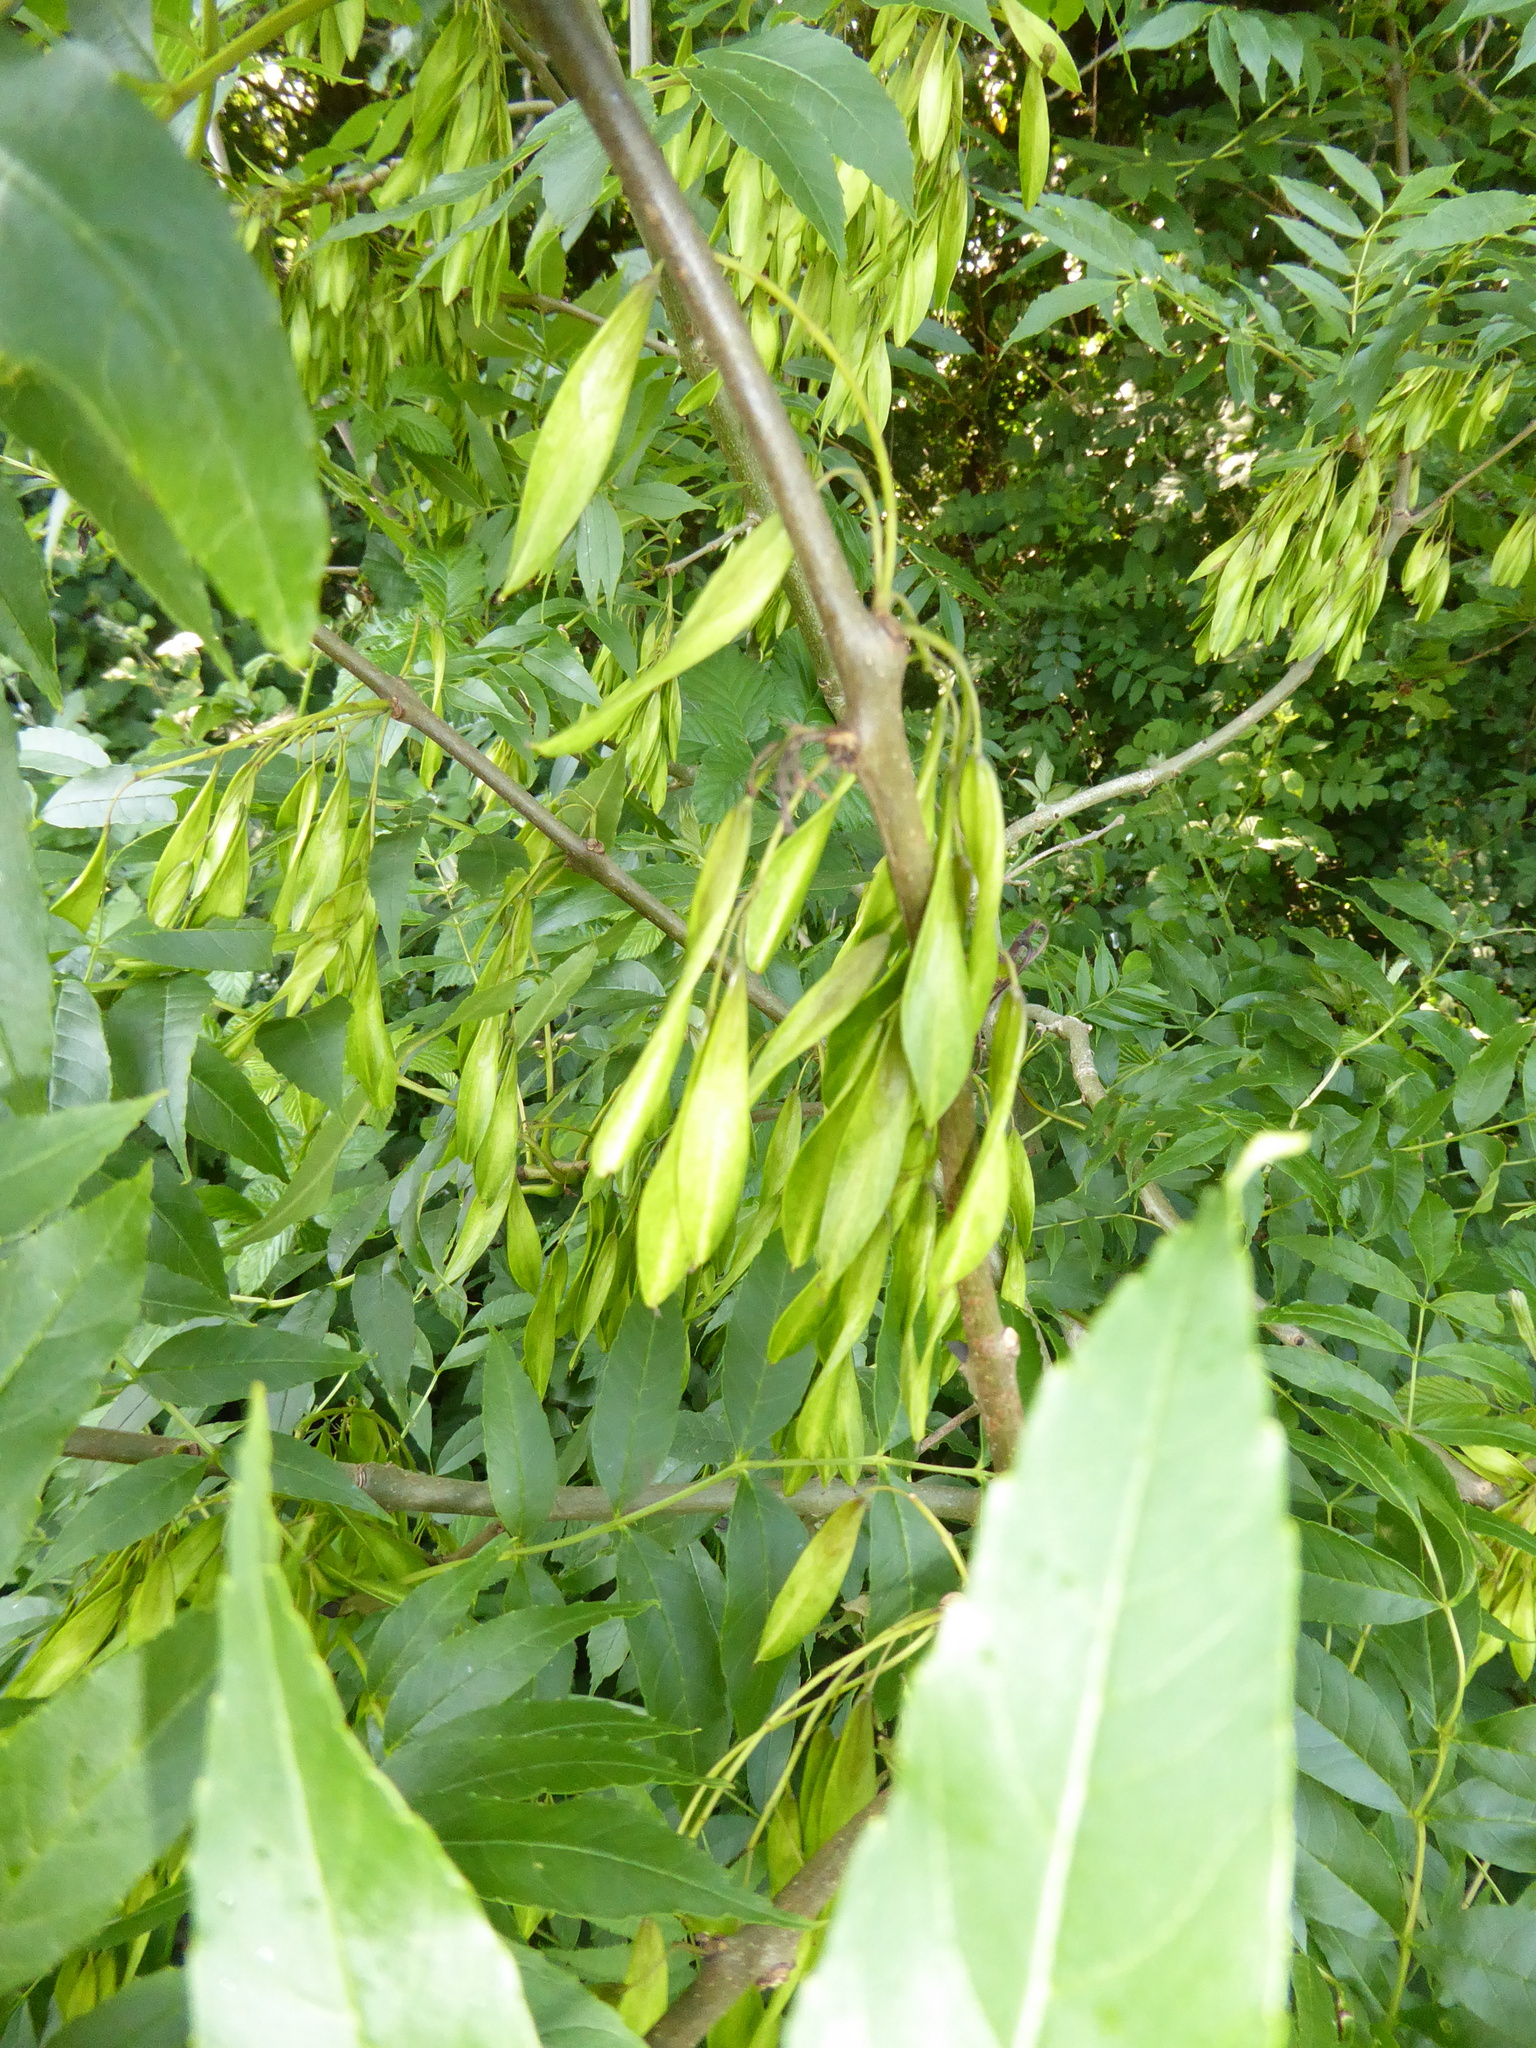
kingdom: Plantae
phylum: Tracheophyta
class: Magnoliopsida
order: Lamiales
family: Oleaceae
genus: Fraxinus
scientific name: Fraxinus excelsior
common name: European ash
